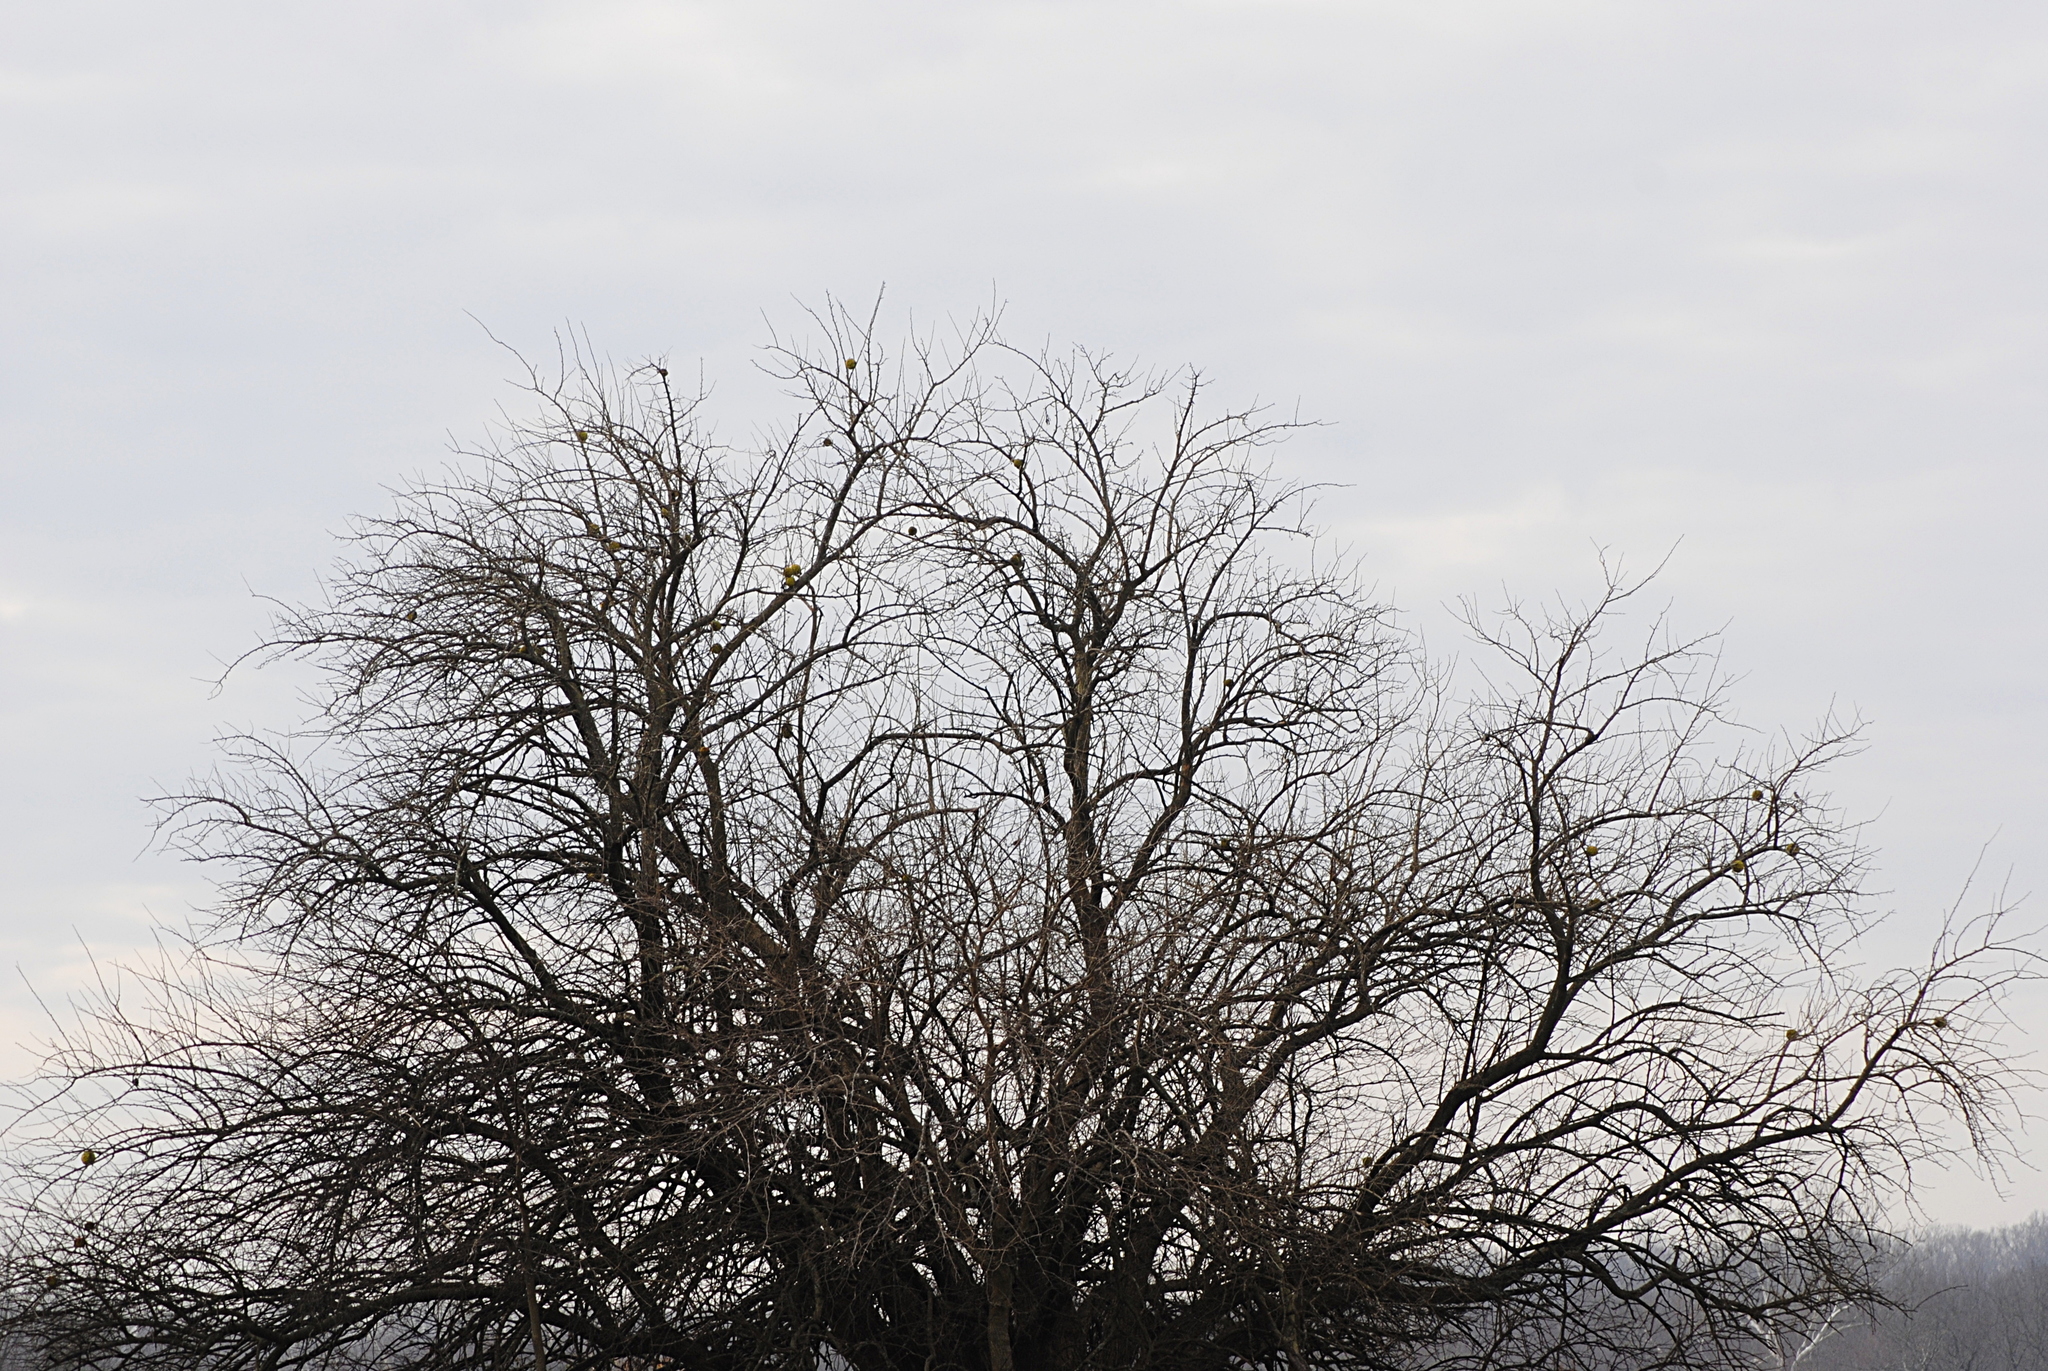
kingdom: Plantae
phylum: Tracheophyta
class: Magnoliopsida
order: Rosales
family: Moraceae
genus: Maclura
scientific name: Maclura pomifera
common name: Osage-orange
